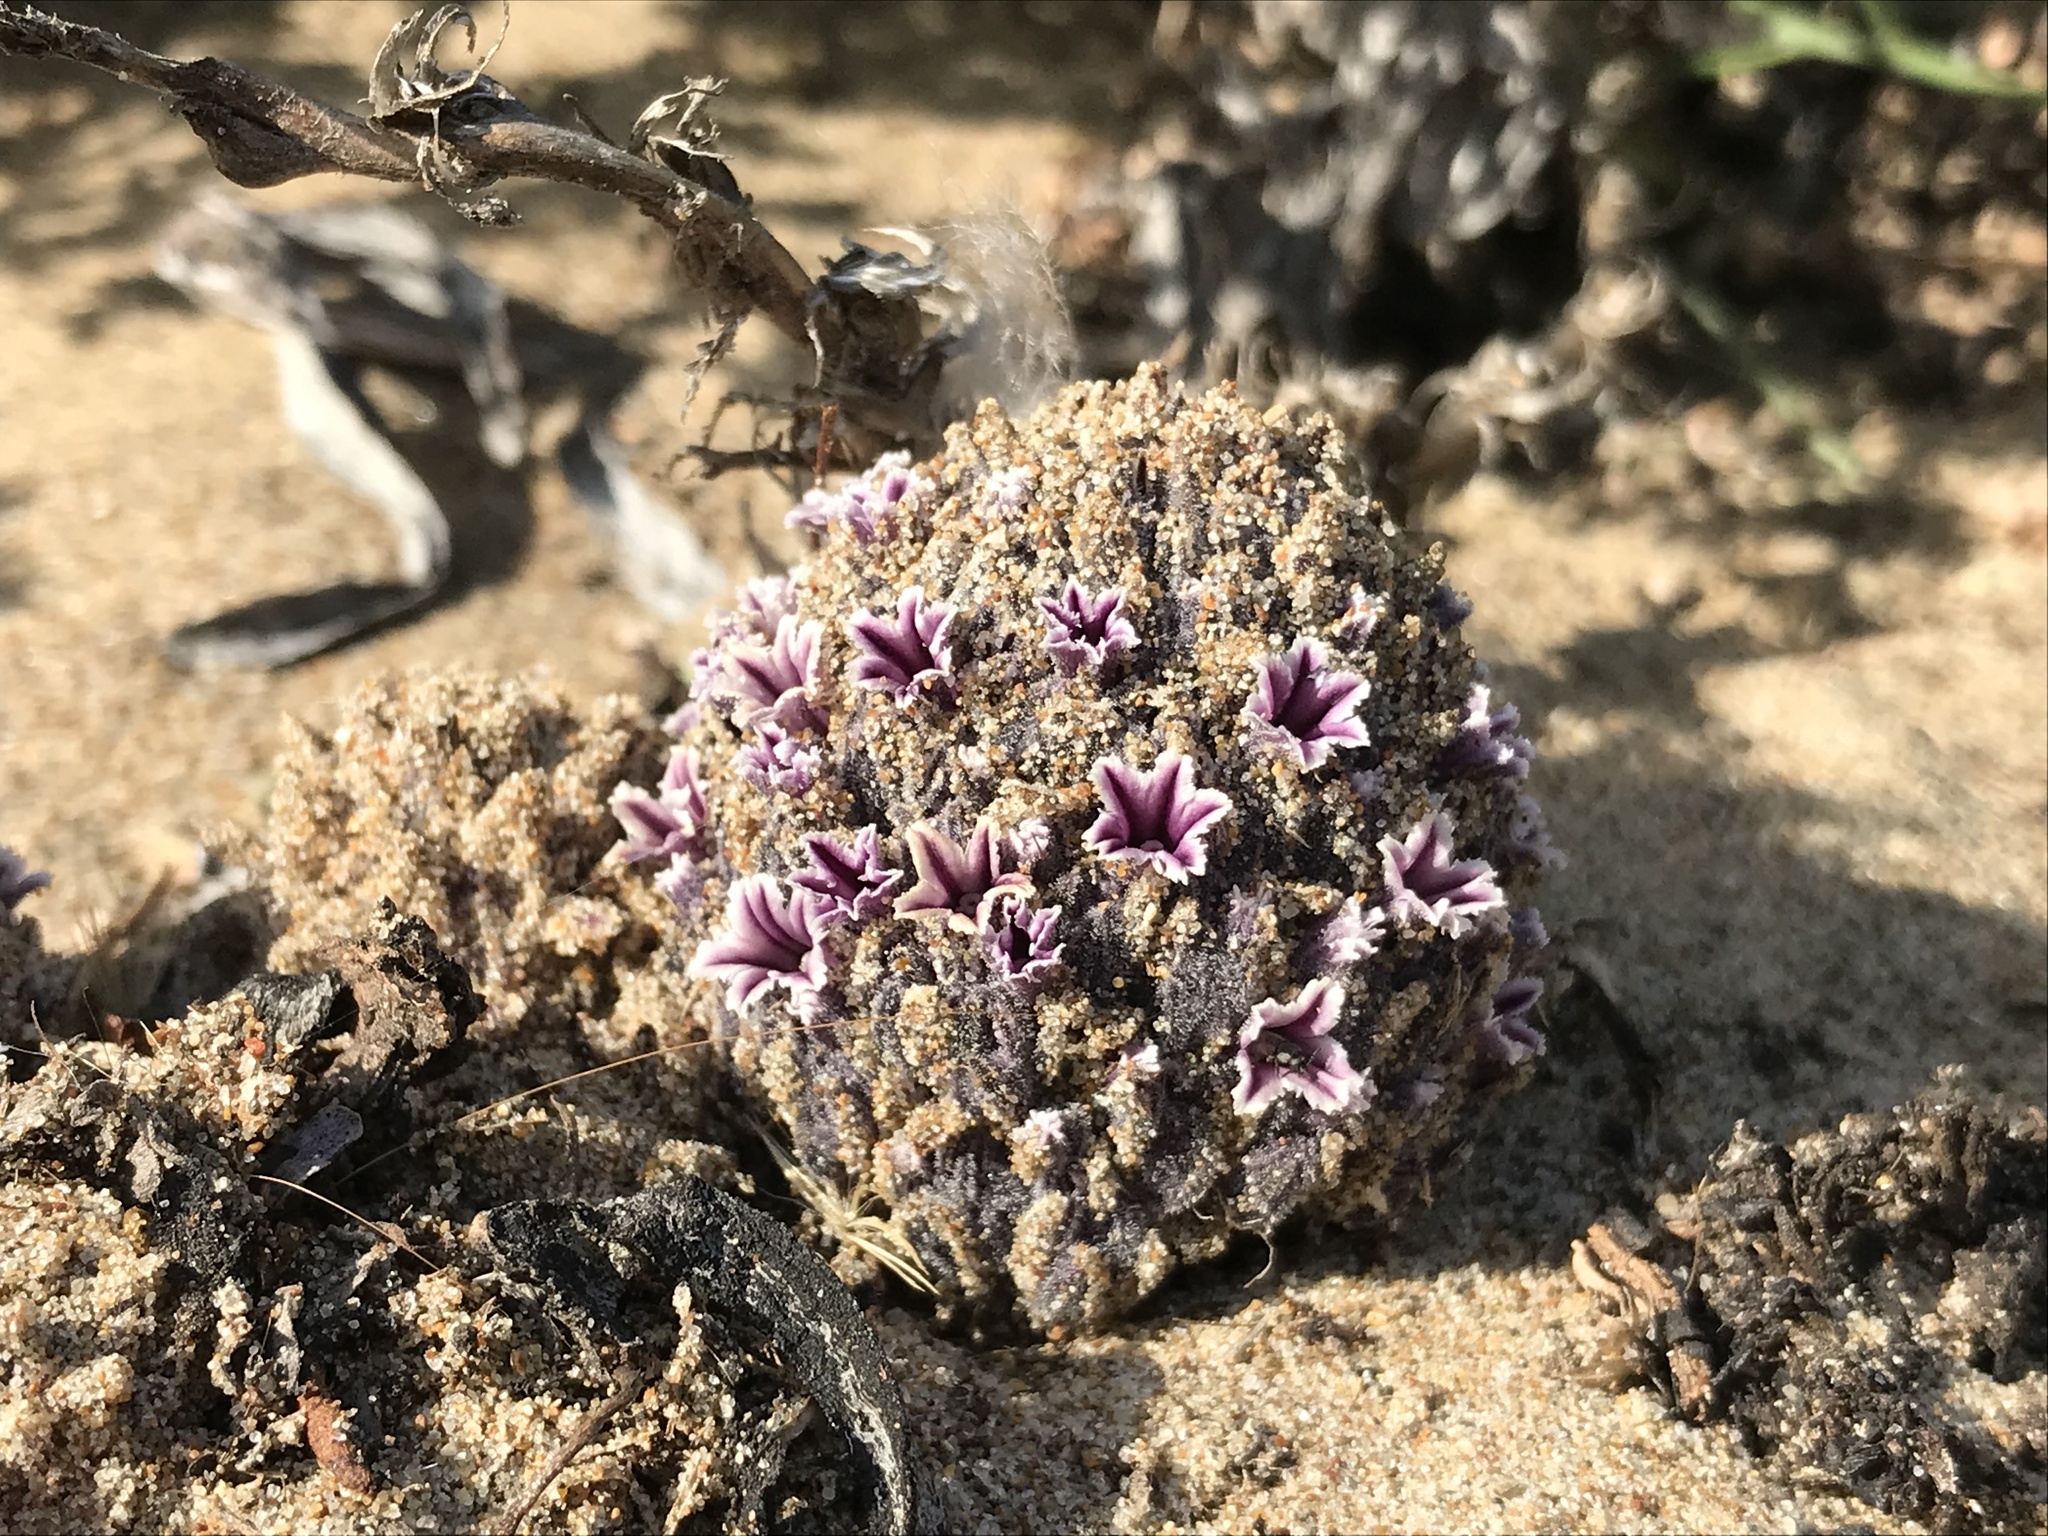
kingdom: Plantae
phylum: Tracheophyta
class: Magnoliopsida
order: Boraginales
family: Lennoaceae
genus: Pholisma
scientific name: Pholisma arenarium
